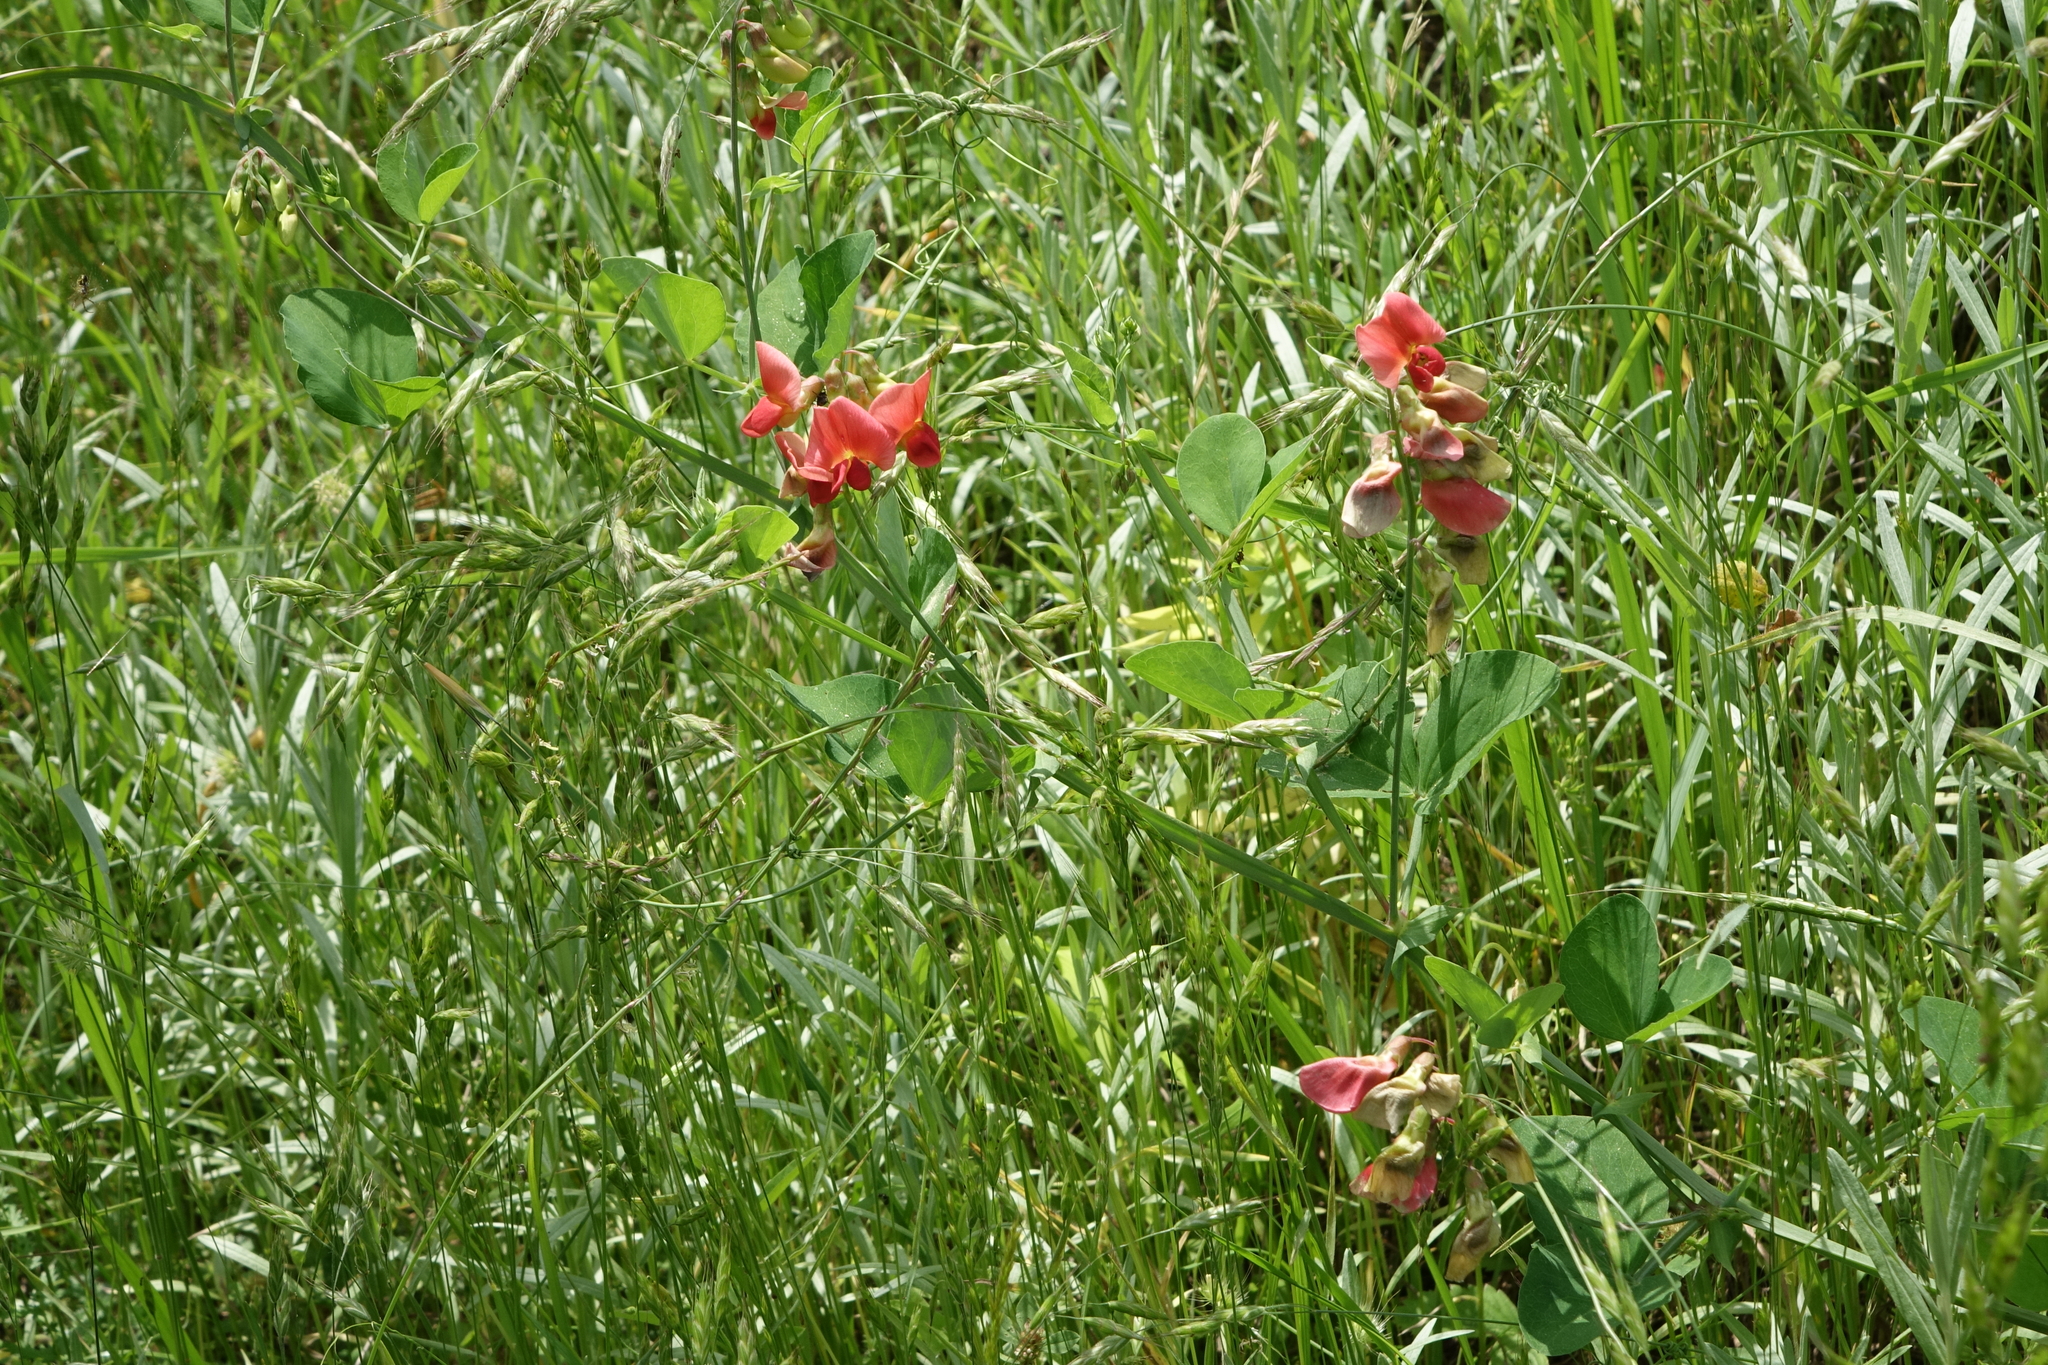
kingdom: Plantae
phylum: Tracheophyta
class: Magnoliopsida
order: Fabales
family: Fabaceae
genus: Lathyrus
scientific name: Lathyrus miniatus
